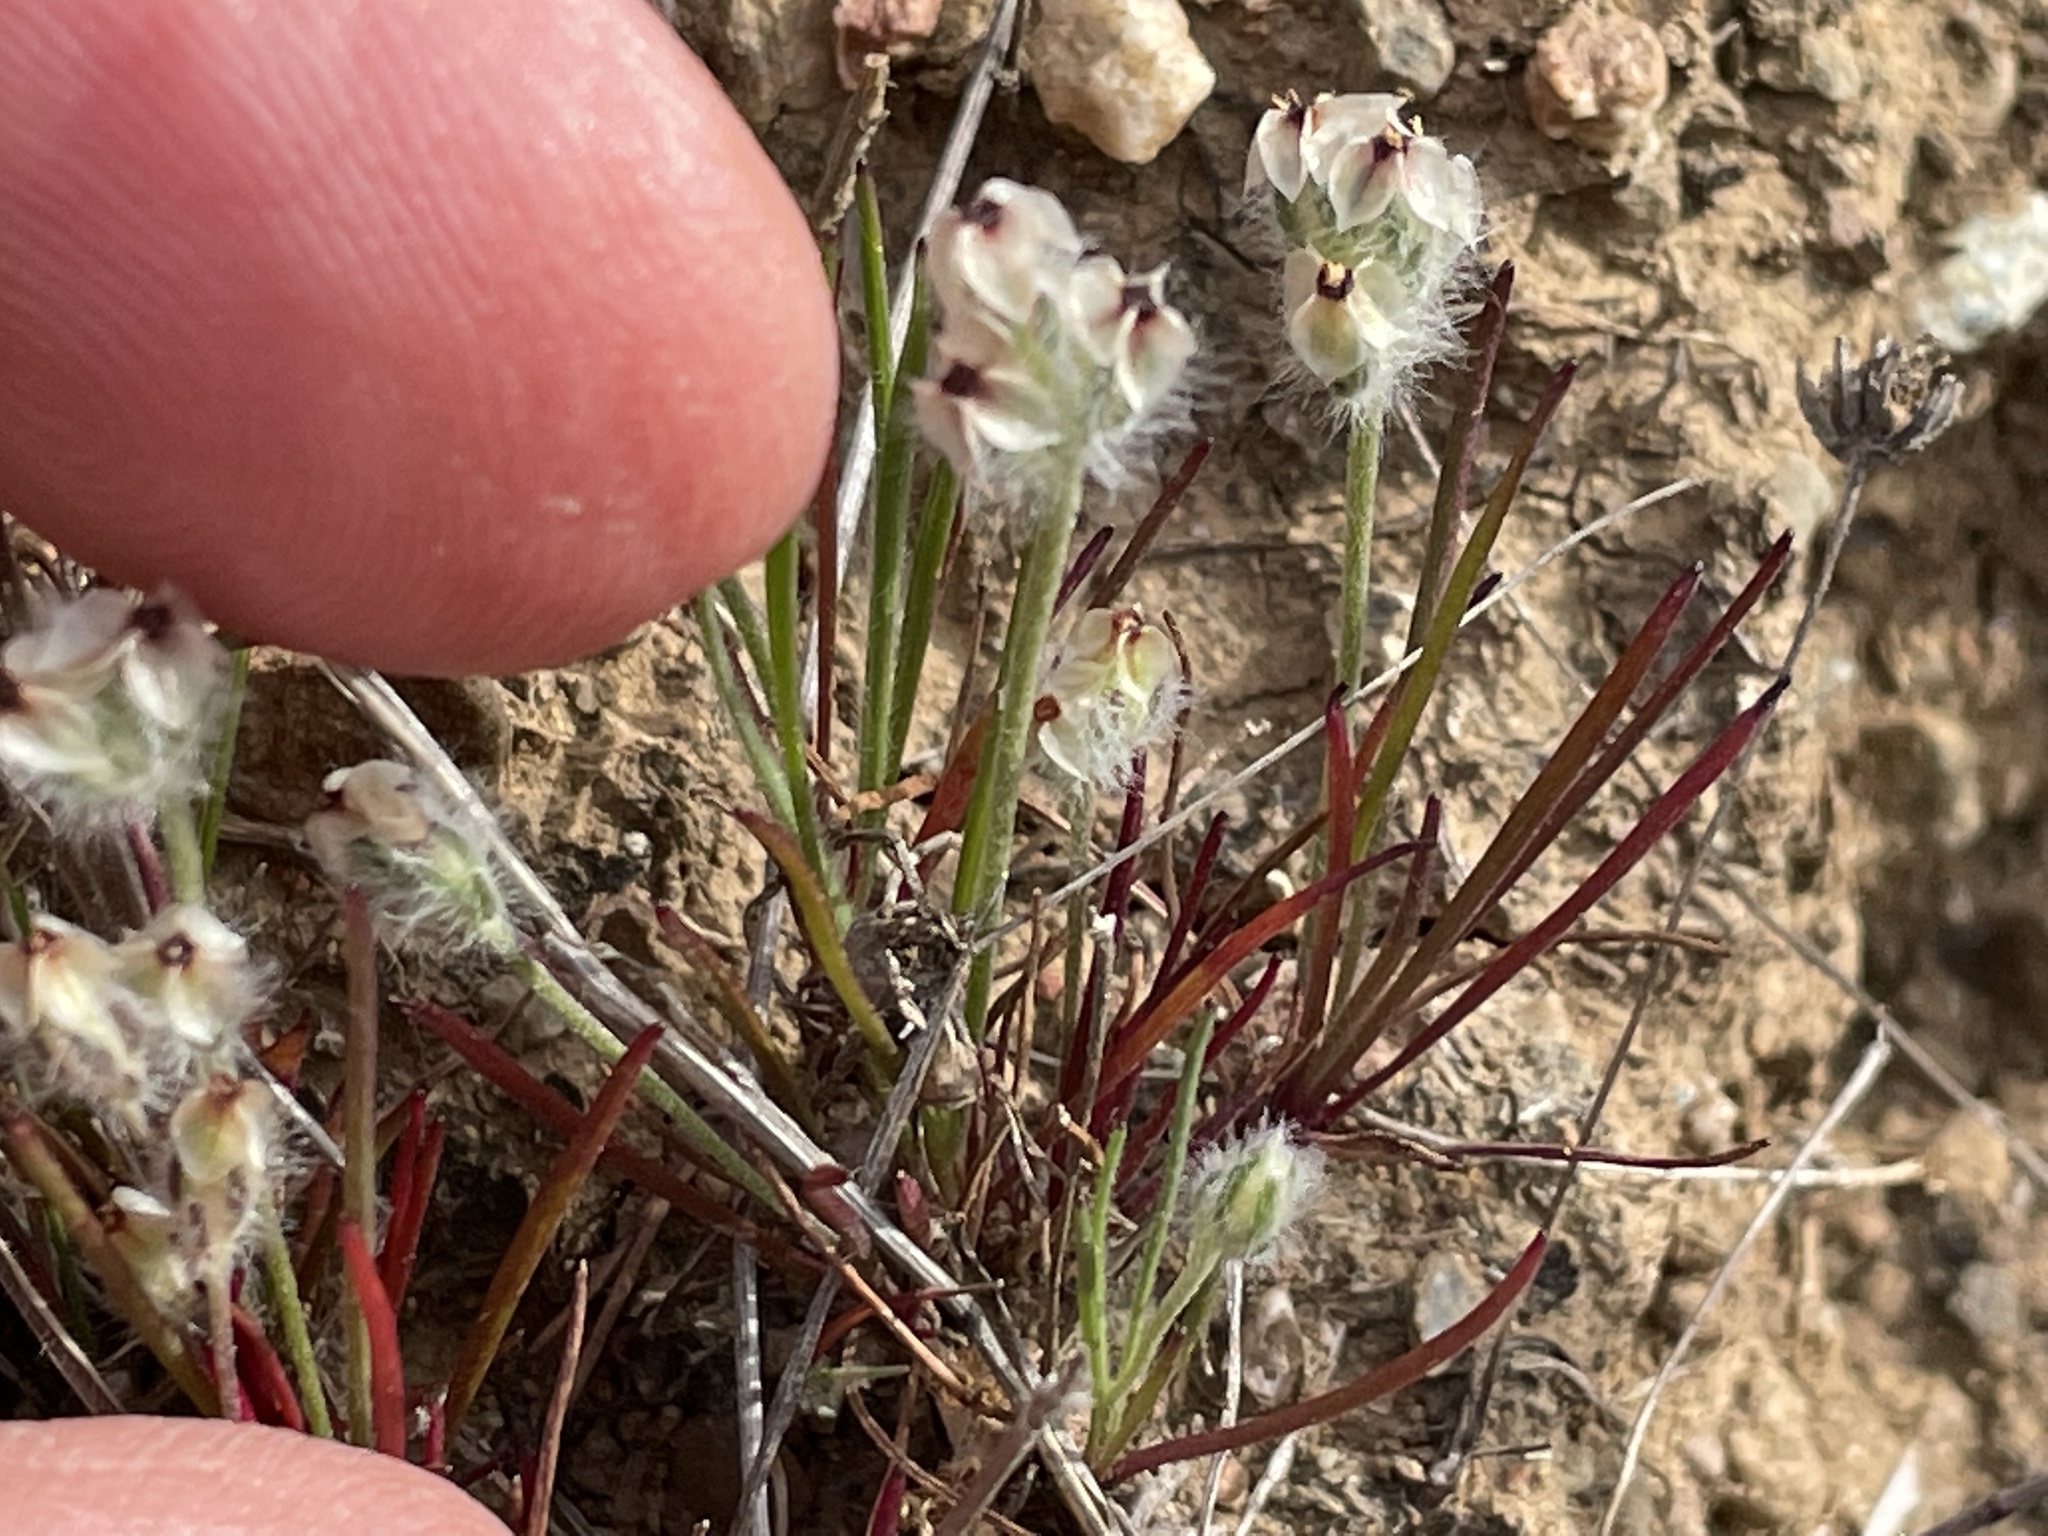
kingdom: Plantae
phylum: Tracheophyta
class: Magnoliopsida
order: Lamiales
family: Plantaginaceae
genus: Plantago
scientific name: Plantago erecta
